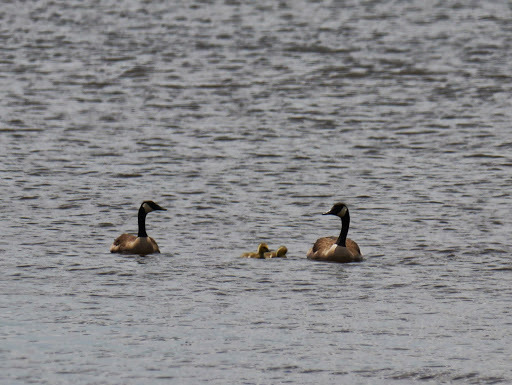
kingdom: Animalia
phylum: Chordata
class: Aves
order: Anseriformes
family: Anatidae
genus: Branta
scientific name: Branta canadensis
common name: Canada goose
